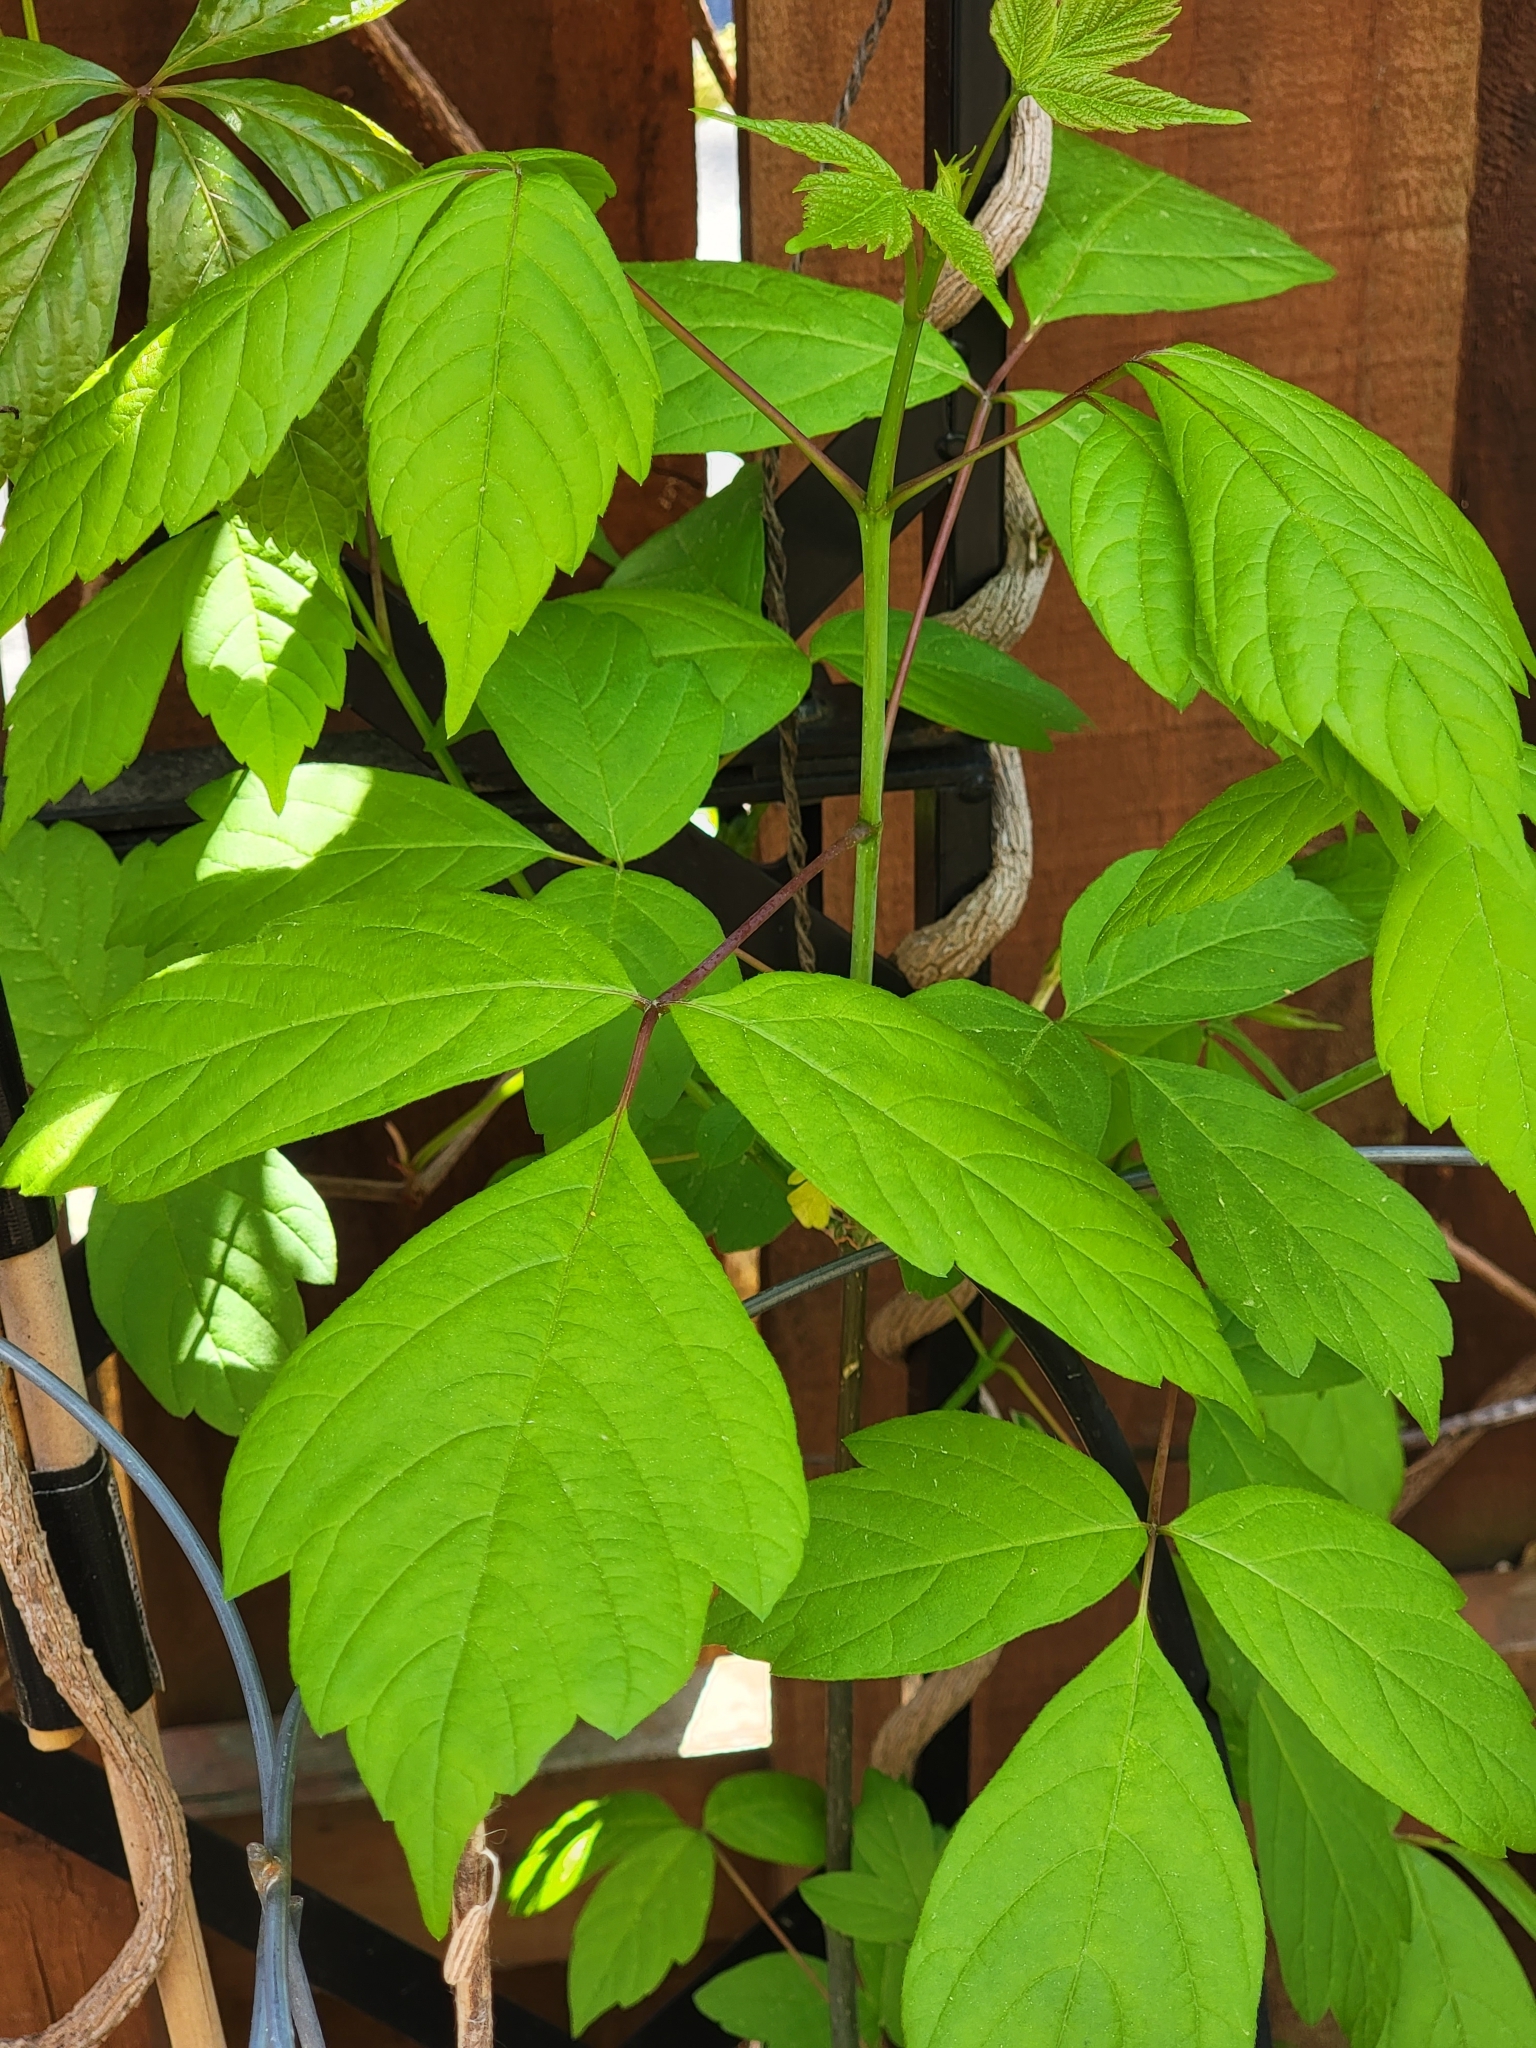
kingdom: Plantae
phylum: Tracheophyta
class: Magnoliopsida
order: Sapindales
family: Sapindaceae
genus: Acer
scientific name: Acer negundo
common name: Ashleaf maple
